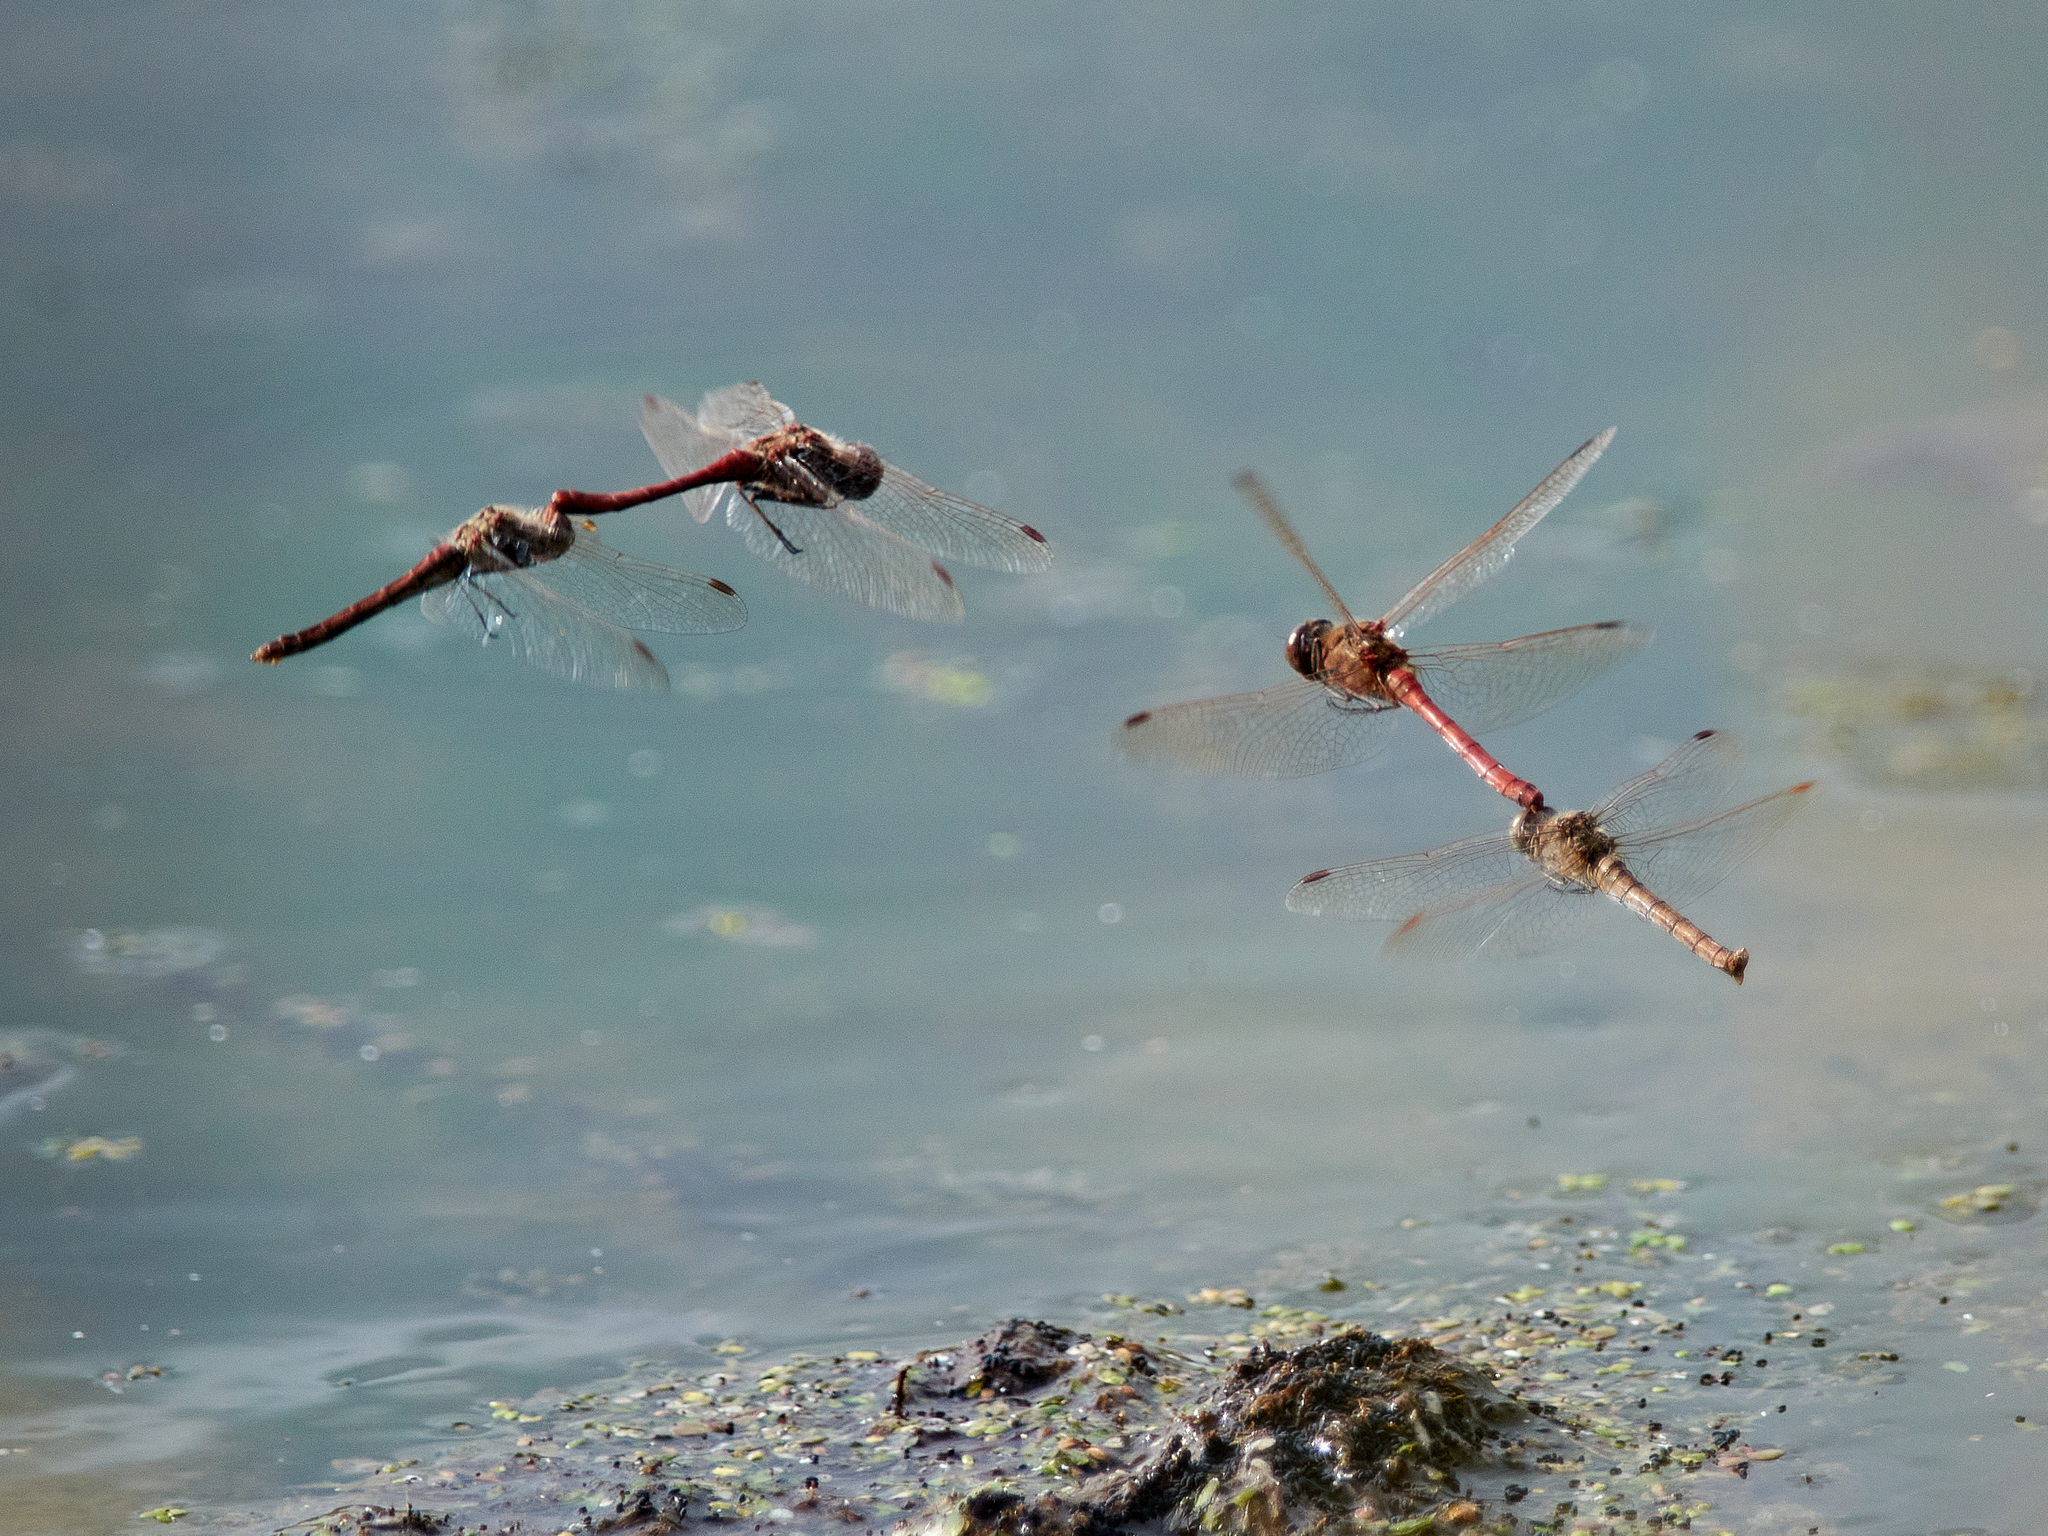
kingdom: Animalia
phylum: Arthropoda
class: Insecta
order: Odonata
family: Libellulidae
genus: Sympetrum
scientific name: Sympetrum vulgatum
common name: Vagrant darter
